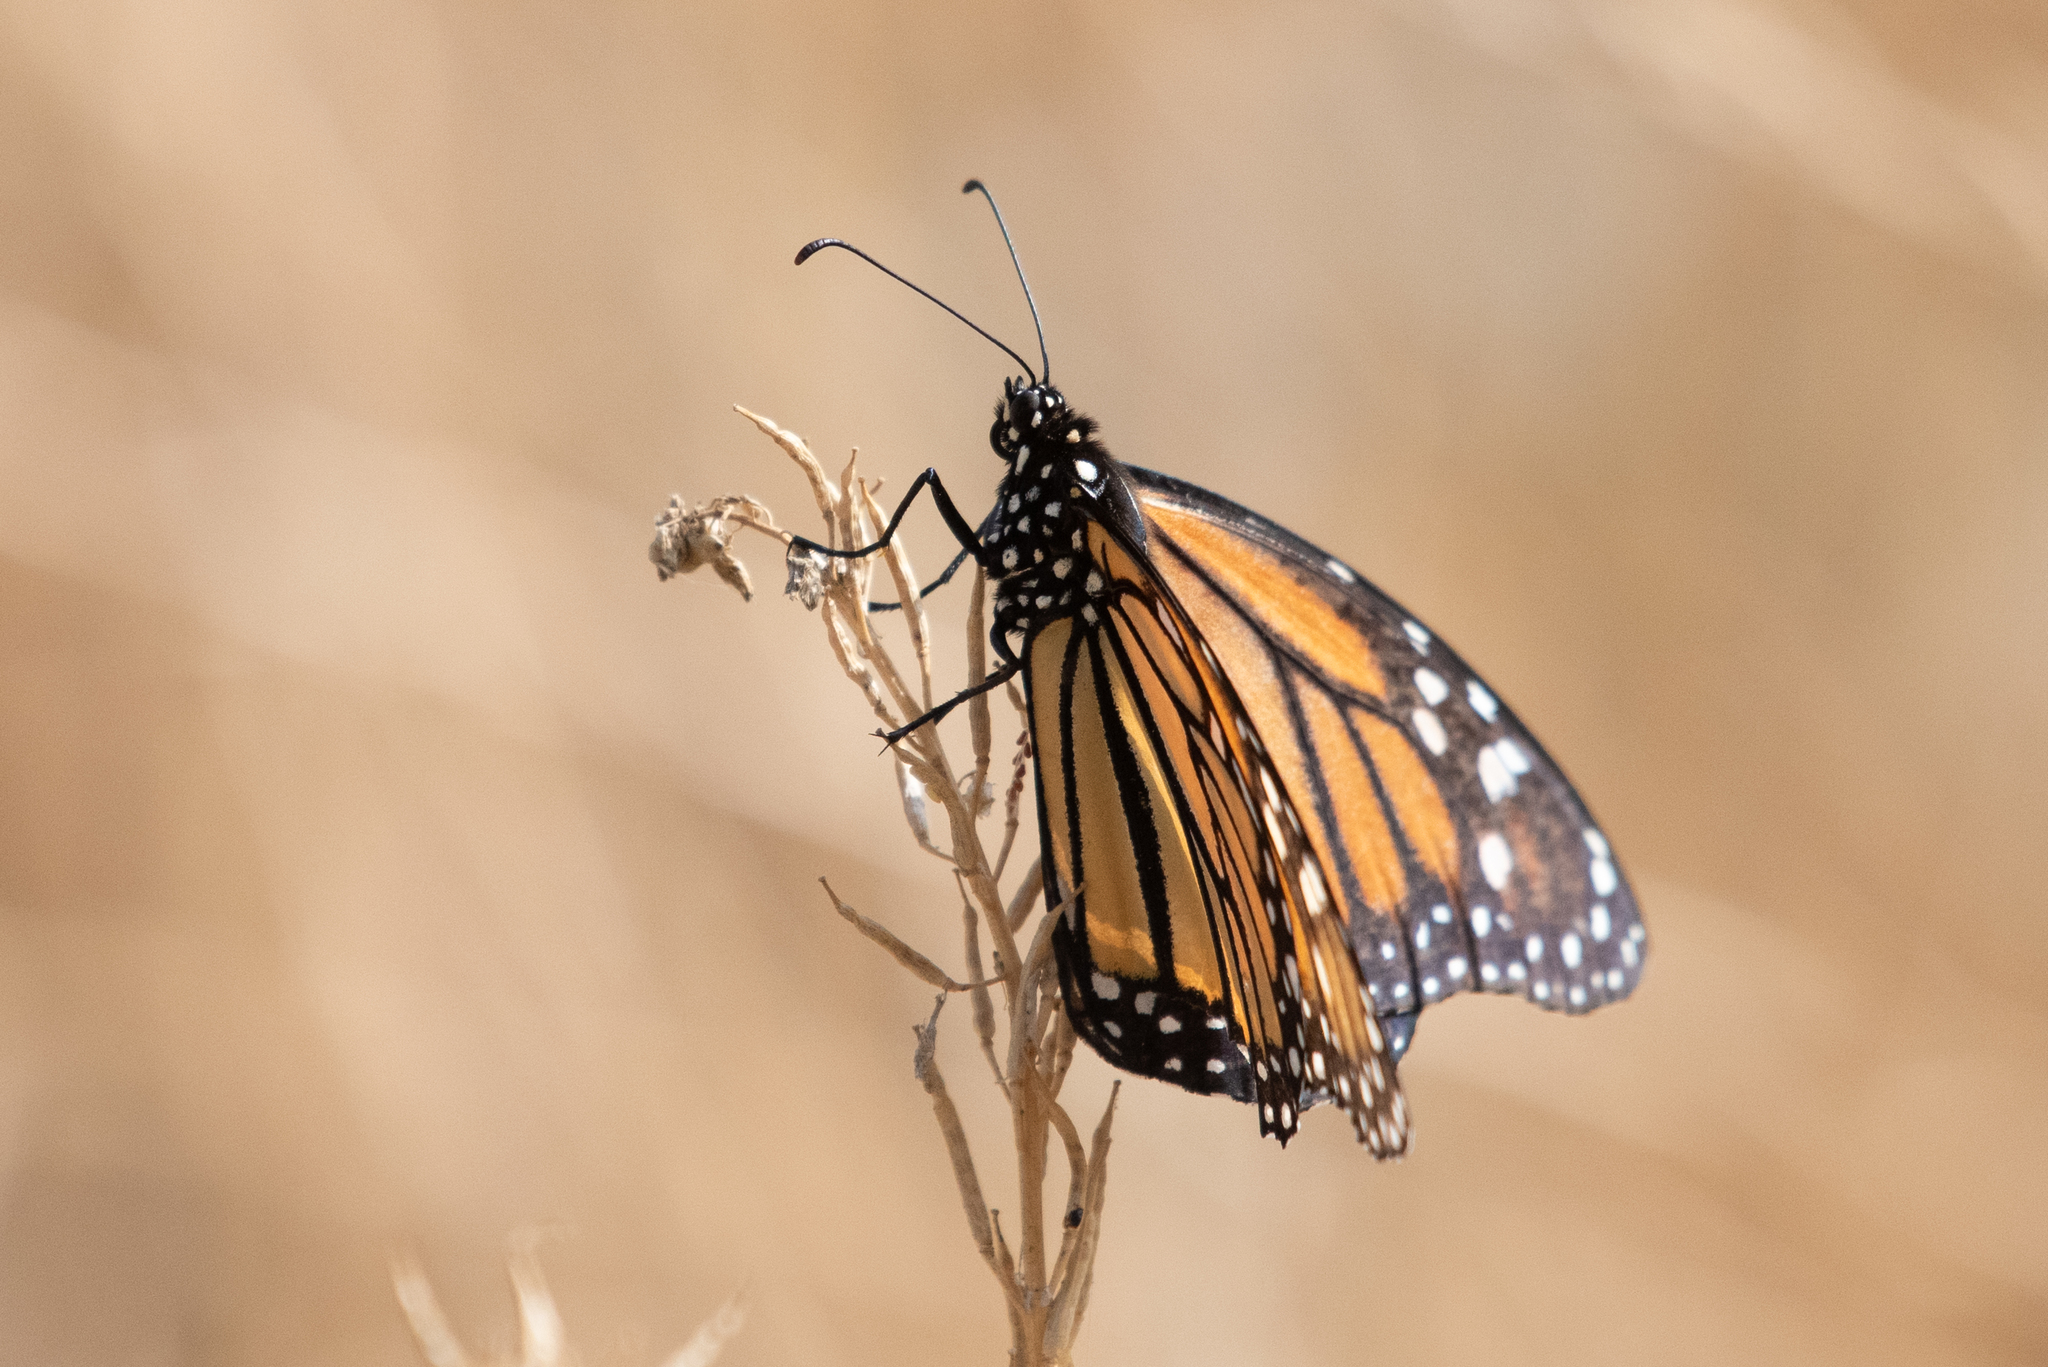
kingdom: Animalia
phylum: Arthropoda
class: Insecta
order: Lepidoptera
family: Nymphalidae
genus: Danaus
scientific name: Danaus plexippus
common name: Monarch
